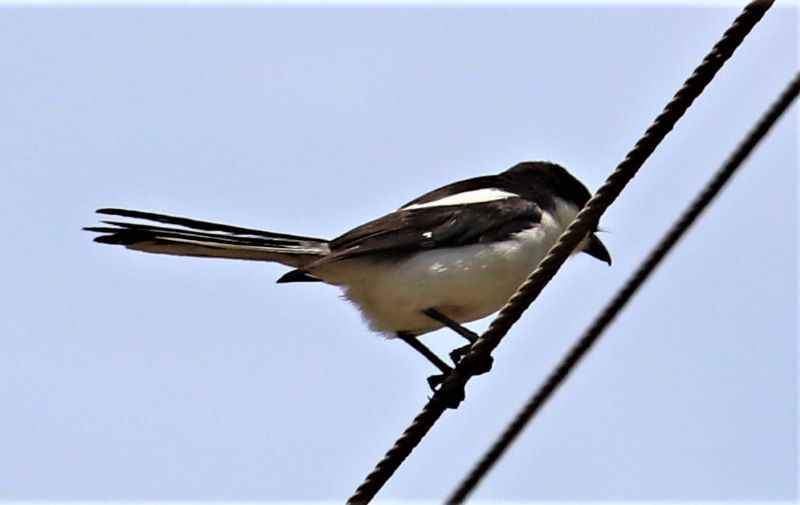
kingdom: Animalia
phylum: Chordata
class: Aves
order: Passeriformes
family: Laniidae
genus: Lanius
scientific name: Lanius collaris
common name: Southern fiscal
